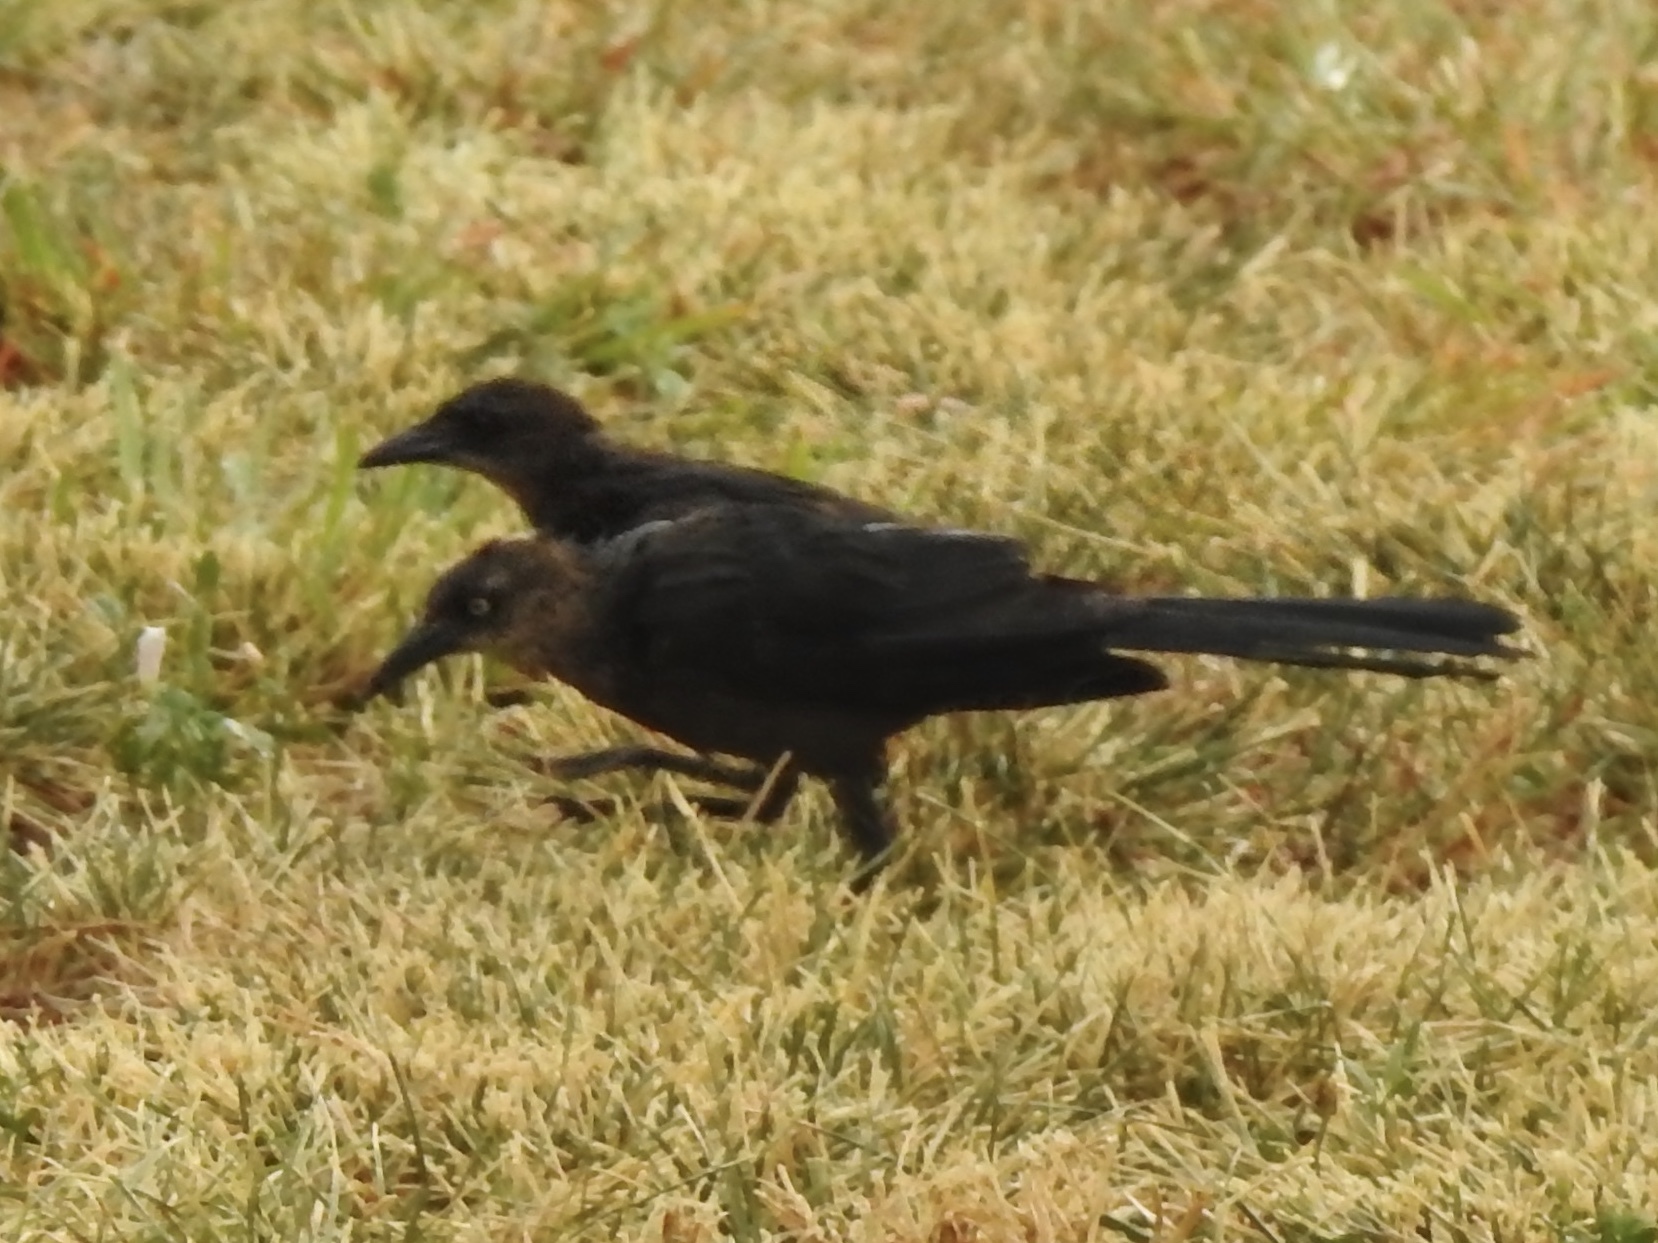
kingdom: Animalia
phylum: Chordata
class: Aves
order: Passeriformes
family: Icteridae
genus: Quiscalus
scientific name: Quiscalus mexicanus
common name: Great-tailed grackle
